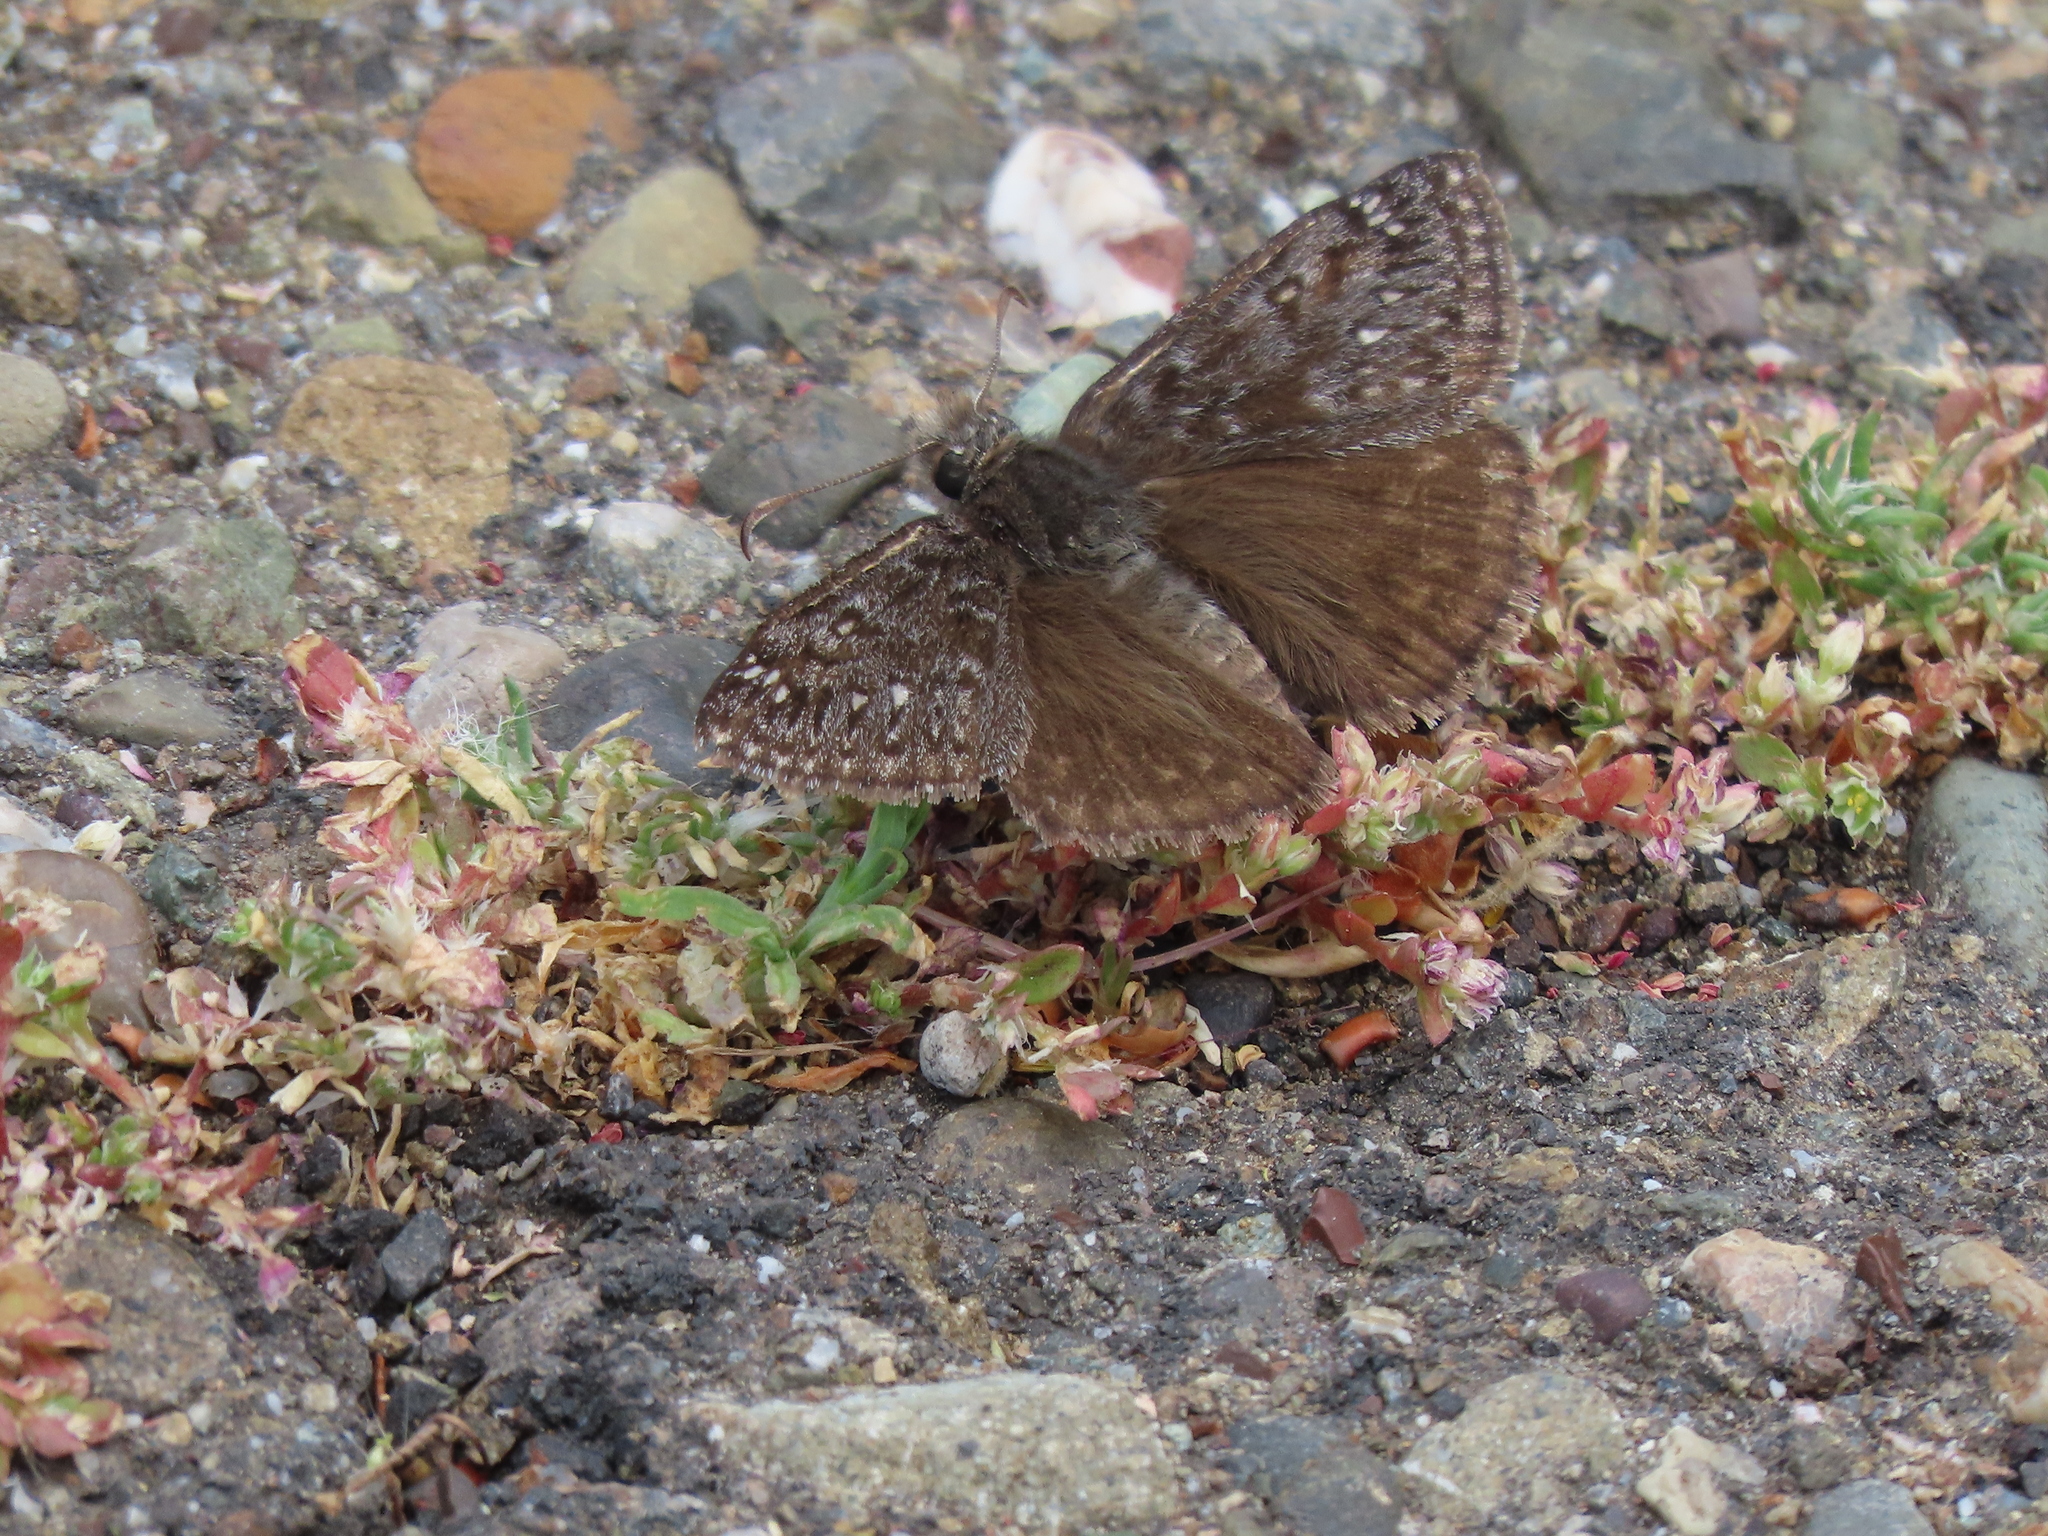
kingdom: Animalia
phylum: Arthropoda
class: Insecta
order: Lepidoptera
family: Hesperiidae
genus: Erynnis
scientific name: Erynnis propertius
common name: Propertius duskywing
